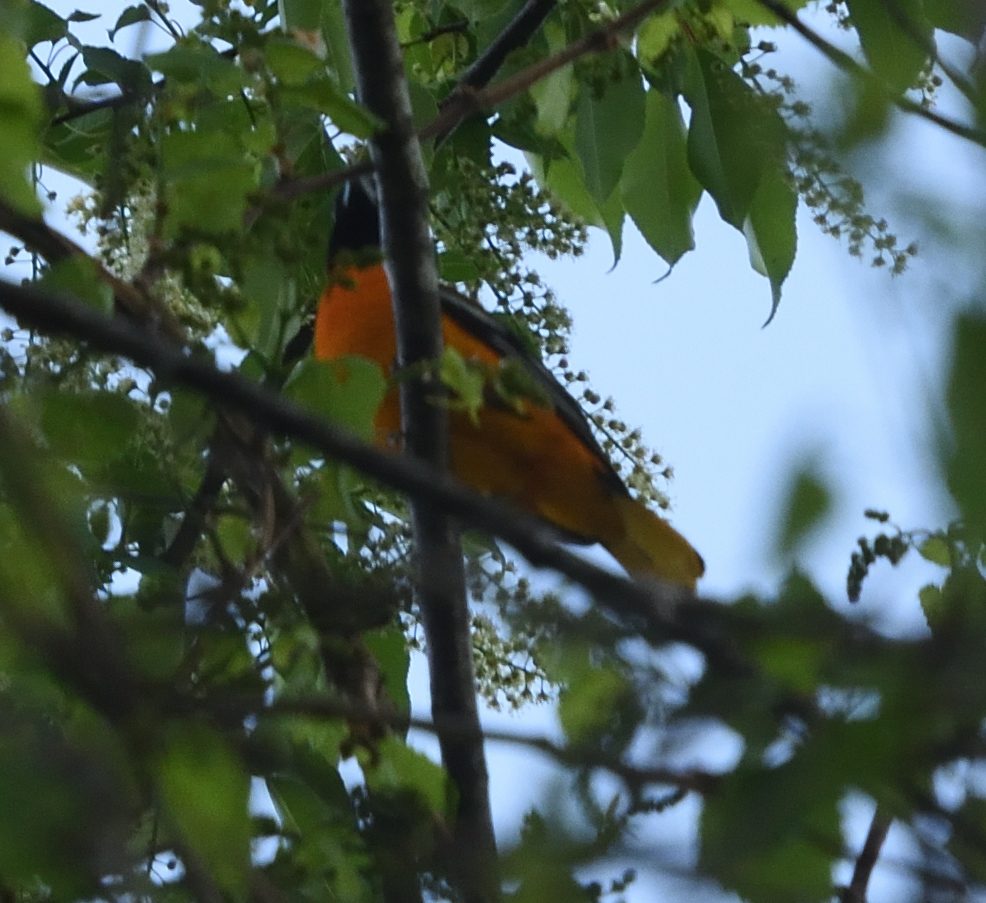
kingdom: Animalia
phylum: Chordata
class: Aves
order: Passeriformes
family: Icteridae
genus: Icterus
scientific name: Icterus galbula
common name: Baltimore oriole
